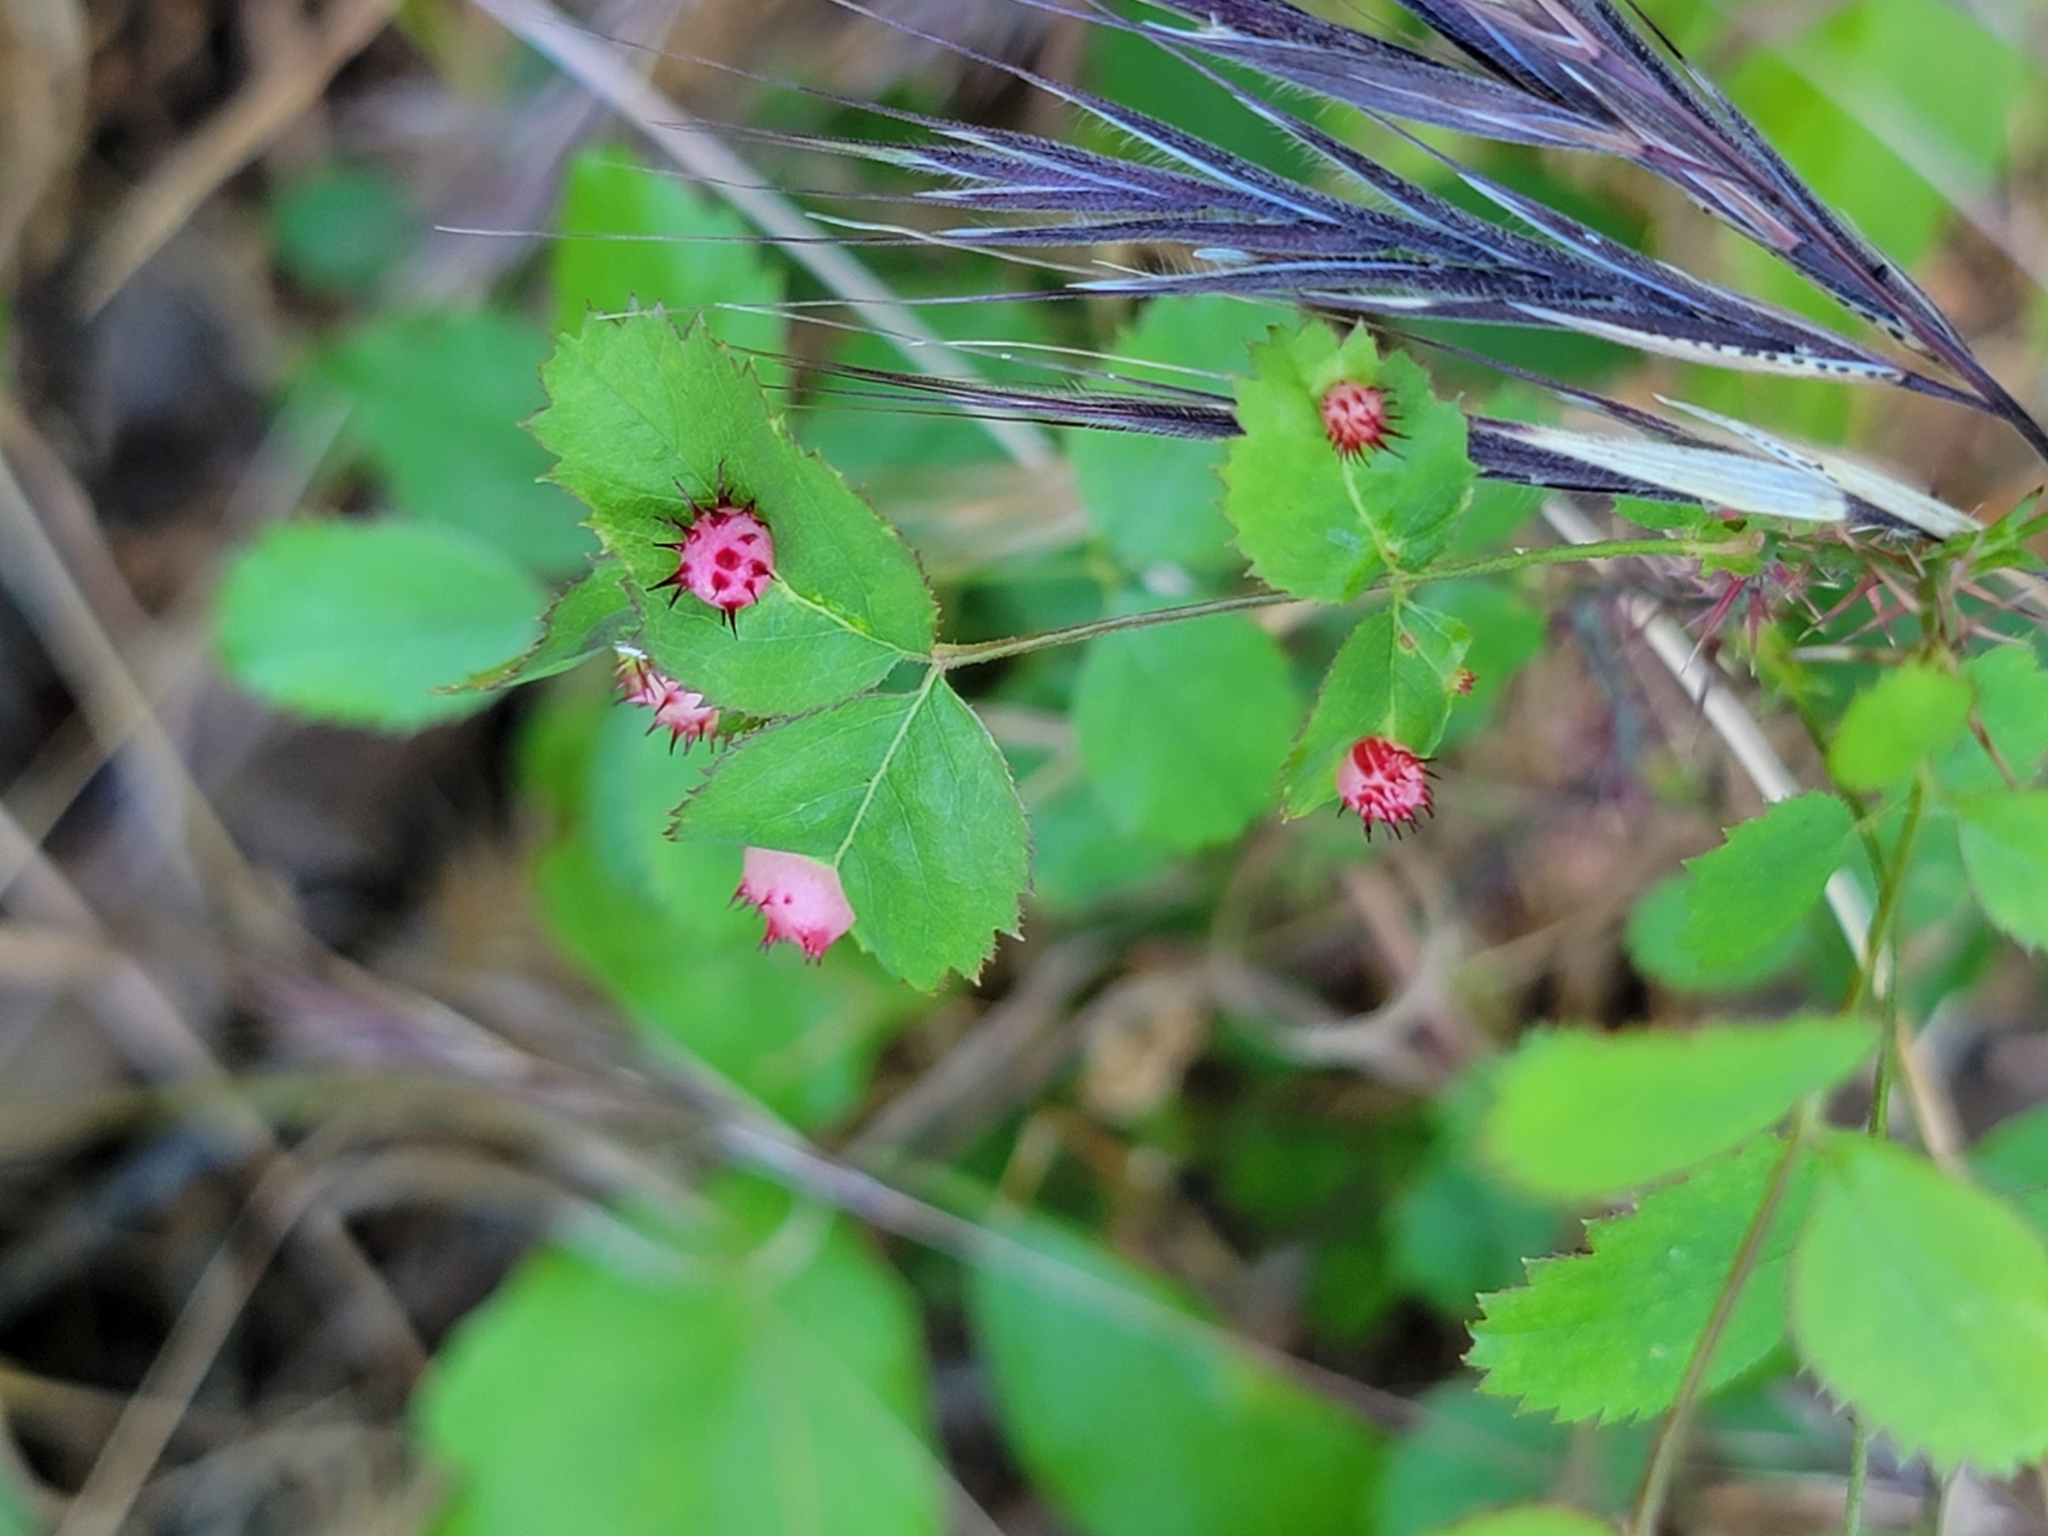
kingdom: Animalia
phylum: Arthropoda
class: Insecta
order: Hymenoptera
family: Cynipidae
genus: Diplolepis
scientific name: Diplolepis polita
